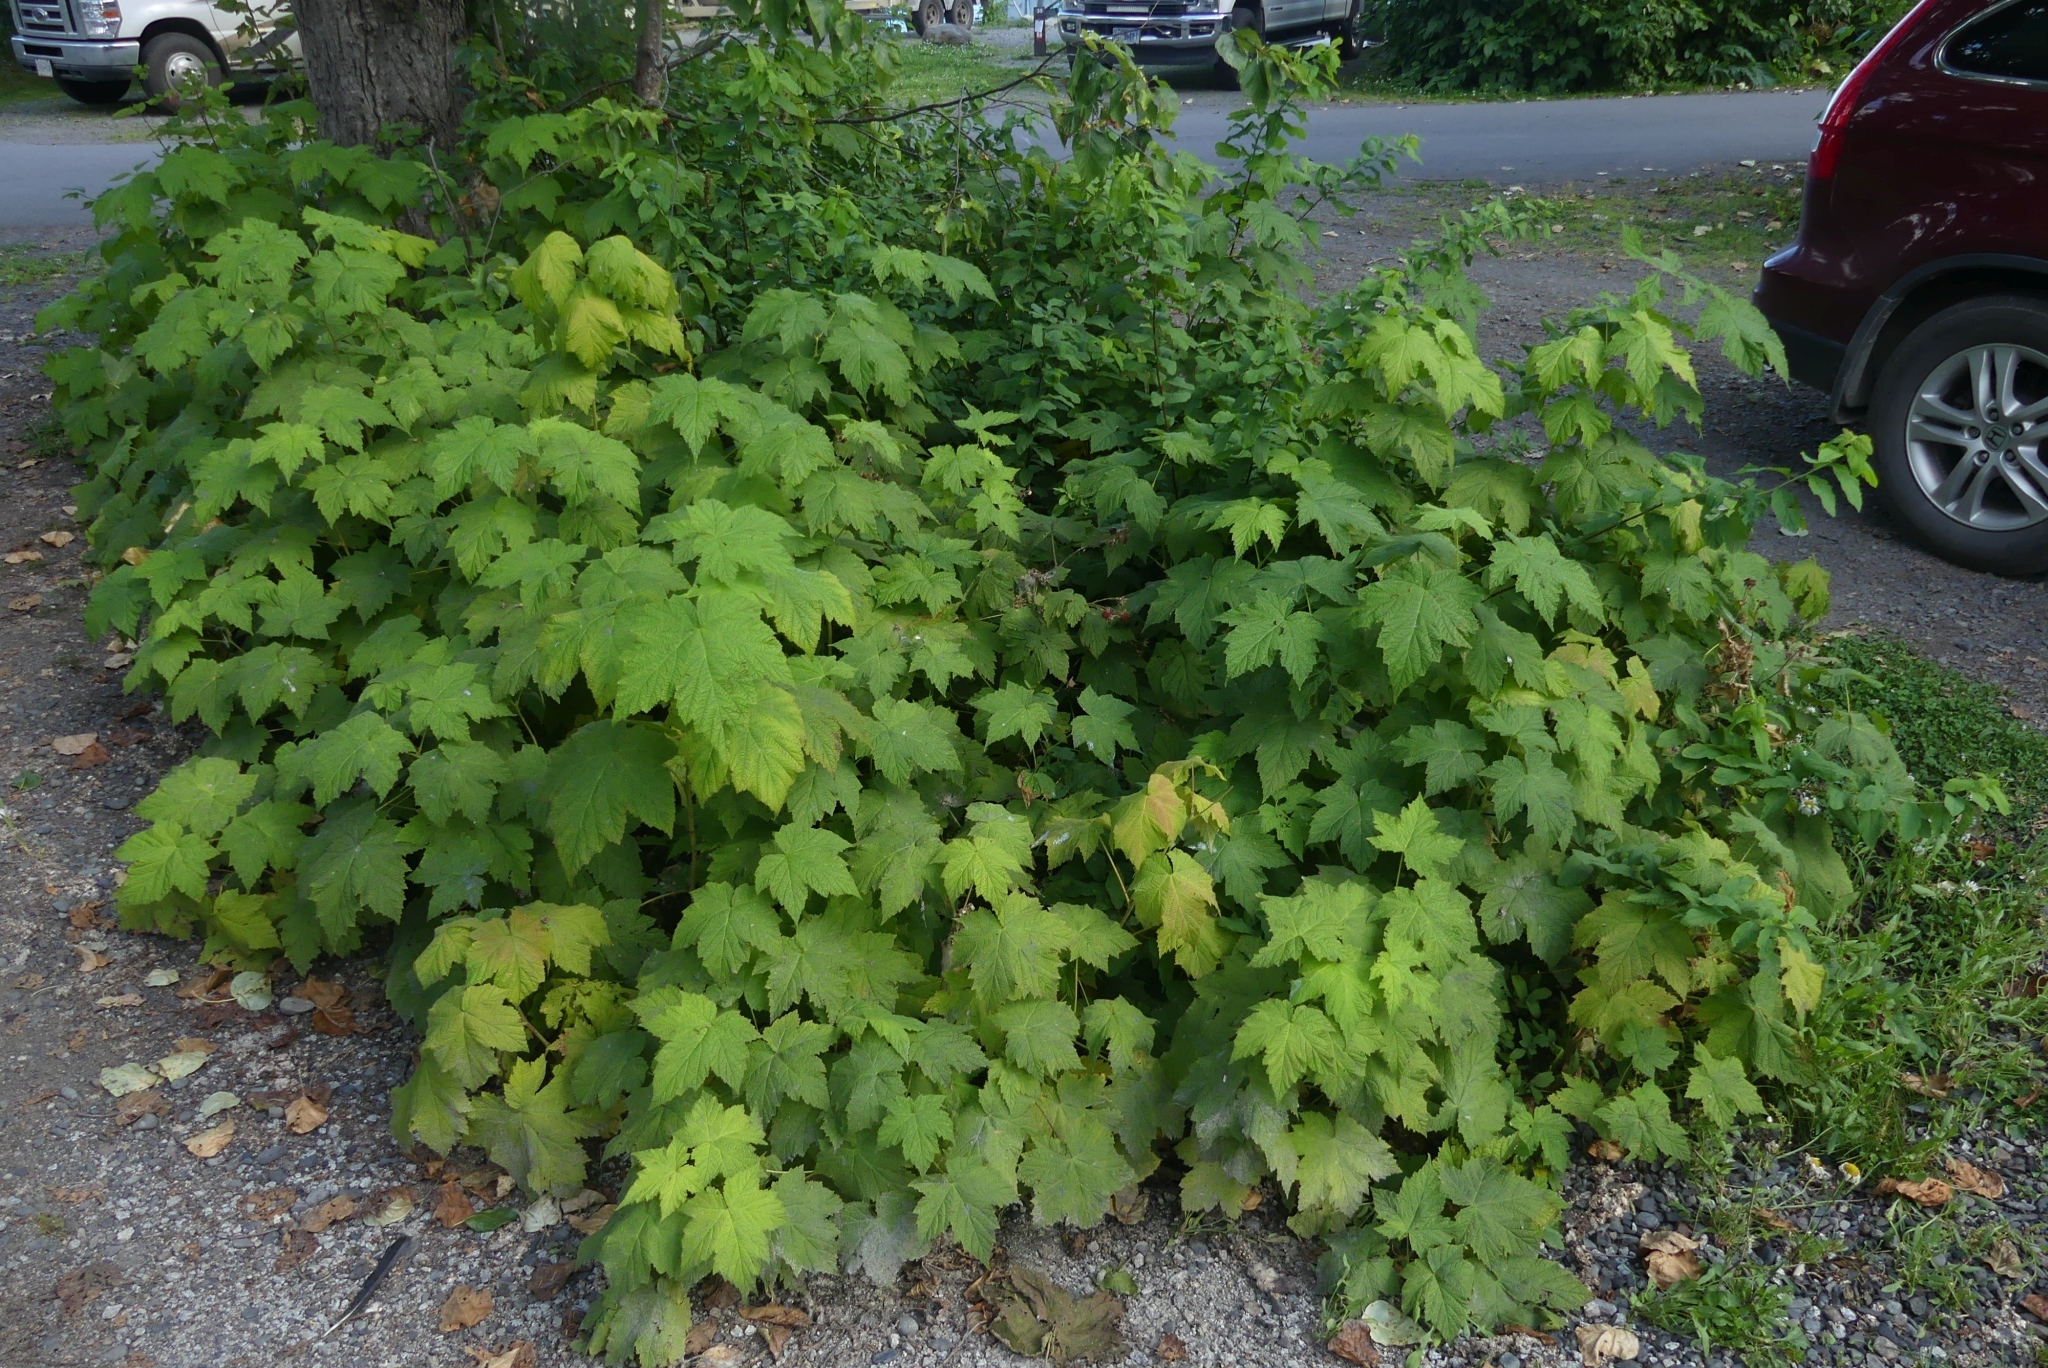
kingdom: Plantae
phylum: Tracheophyta
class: Magnoliopsida
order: Rosales
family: Rosaceae
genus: Rubus
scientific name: Rubus parviflorus
